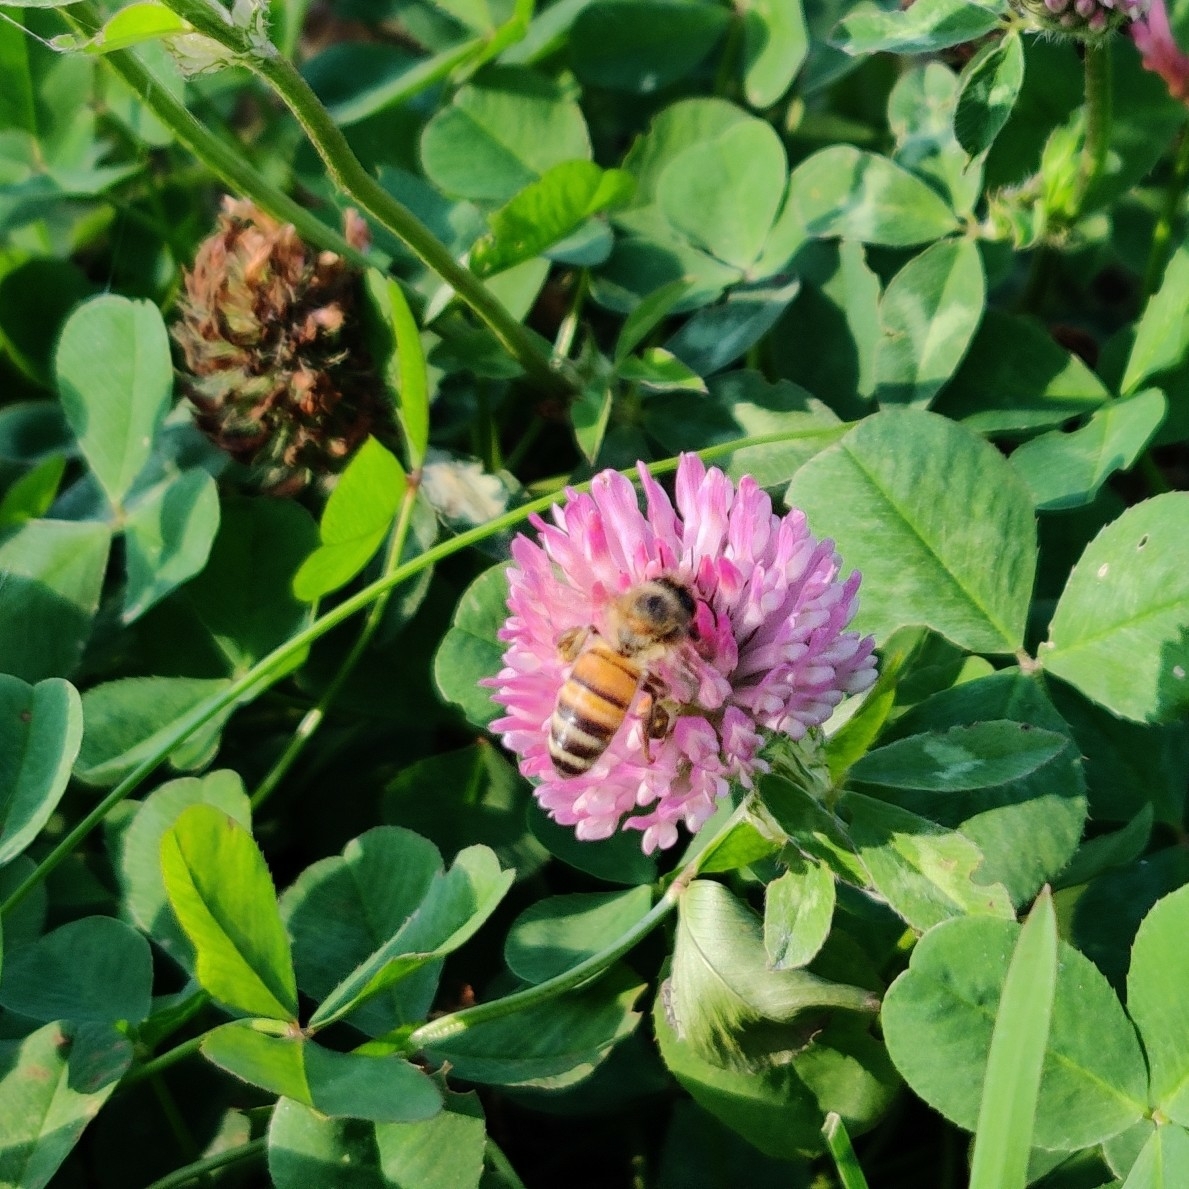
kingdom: Animalia
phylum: Arthropoda
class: Insecta
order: Hymenoptera
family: Apidae
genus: Apis
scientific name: Apis mellifera
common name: Honey bee
